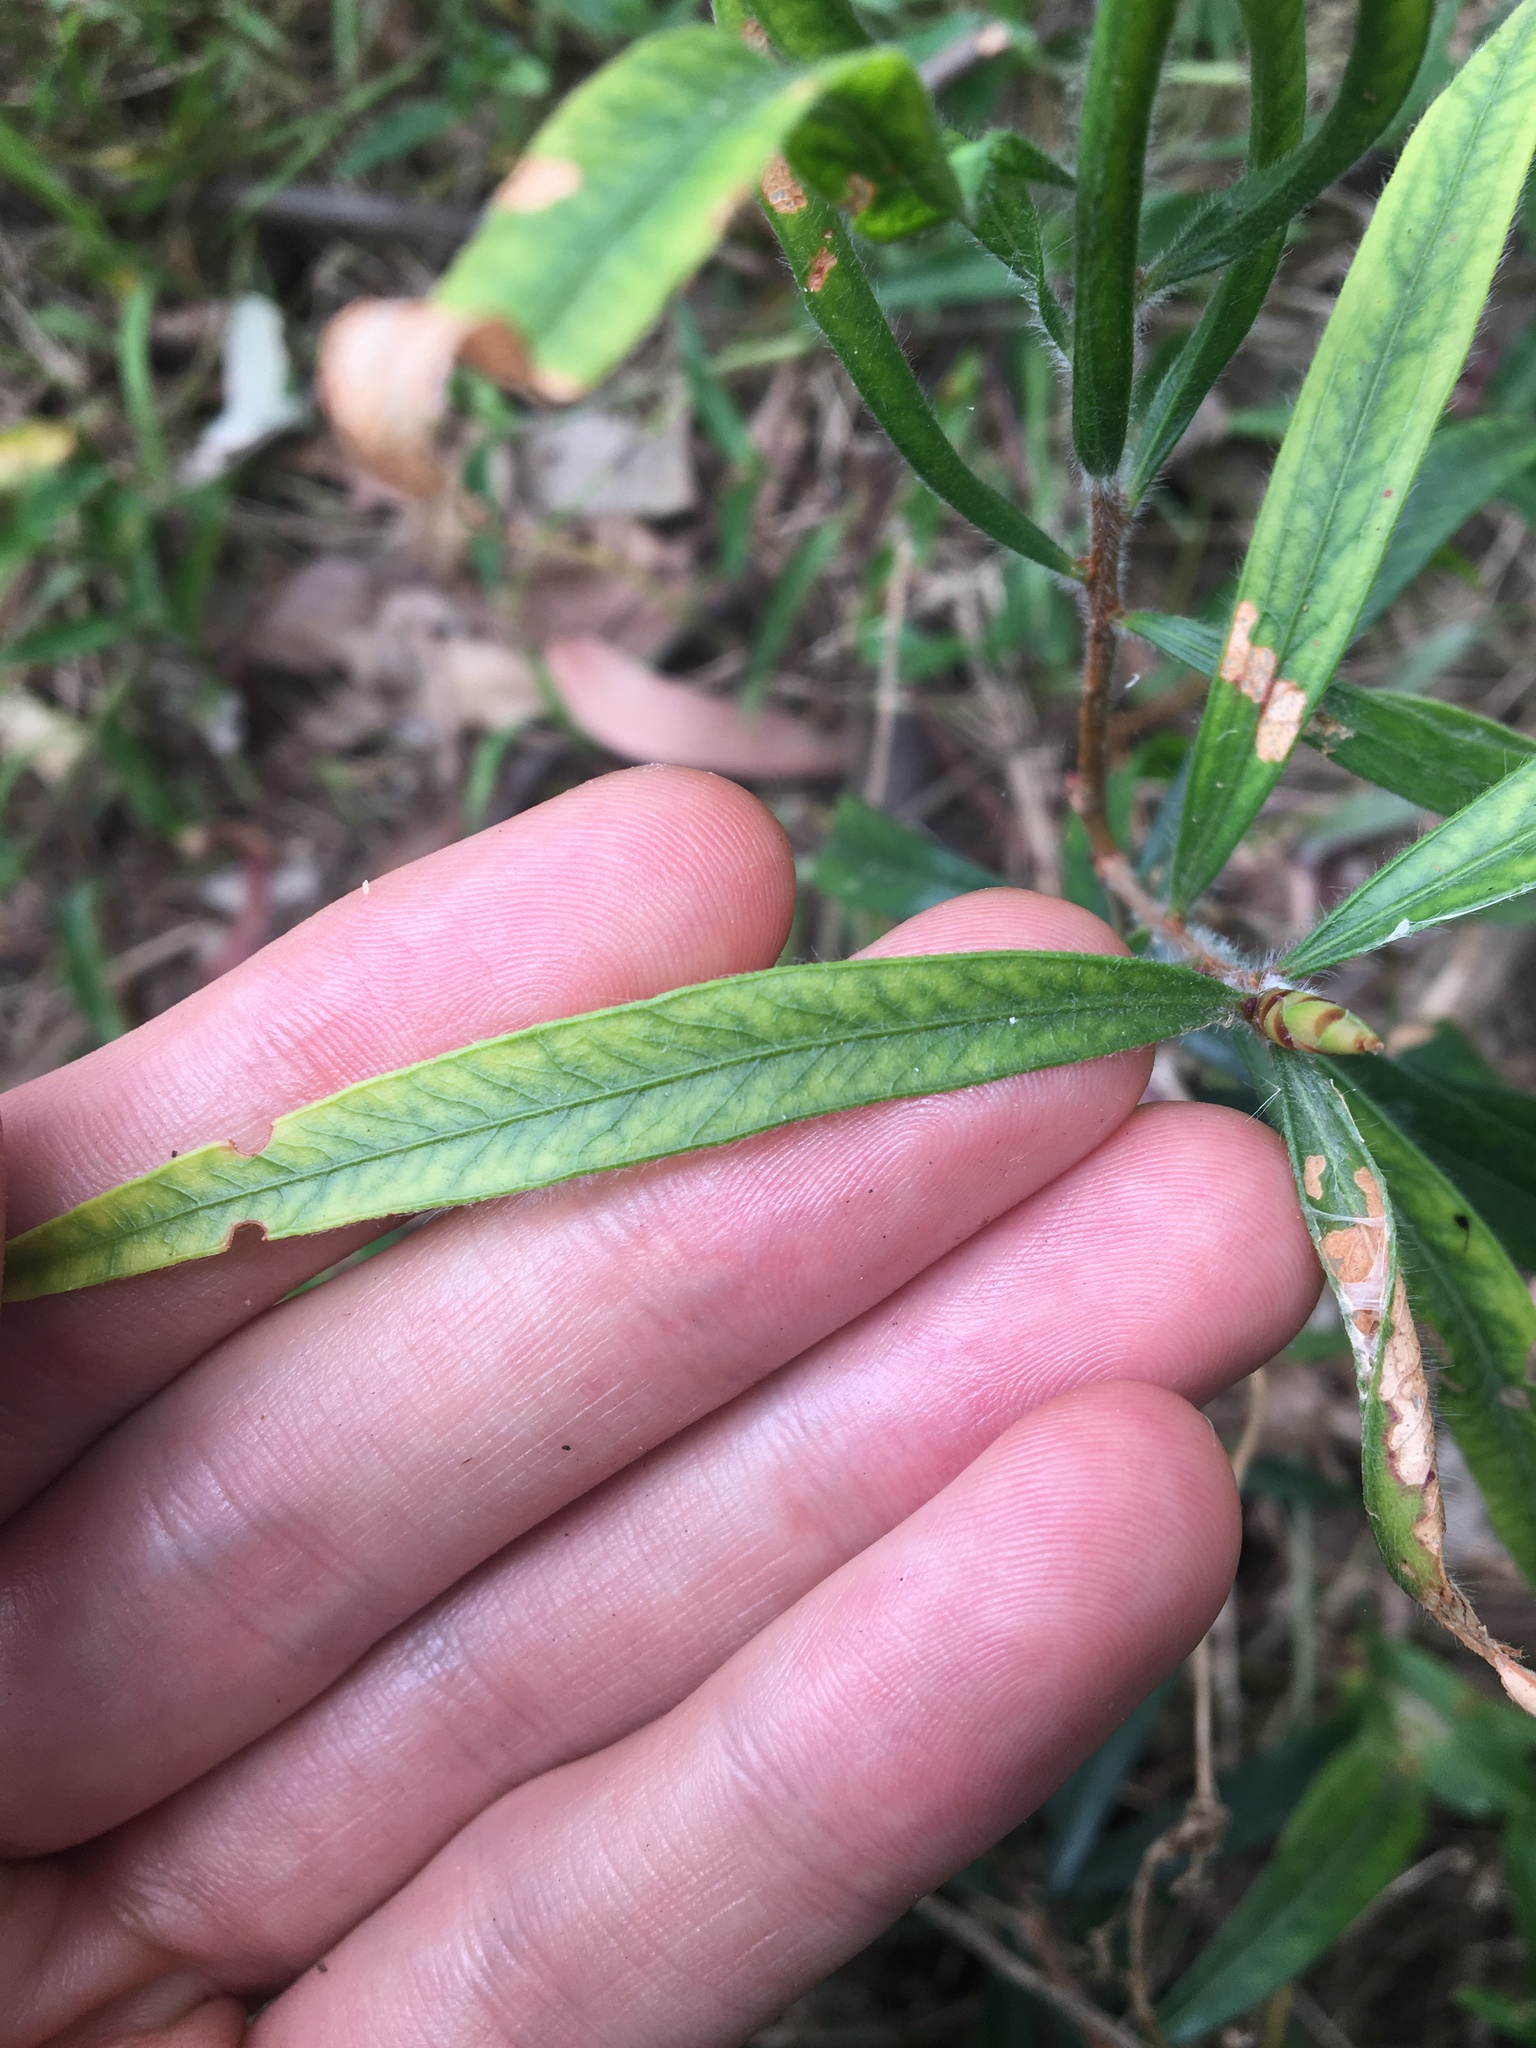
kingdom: Plantae
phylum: Tracheophyta
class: Magnoliopsida
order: Myrtales
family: Myrtaceae
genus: Melaleuca
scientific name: Melaleuca linearifolia
